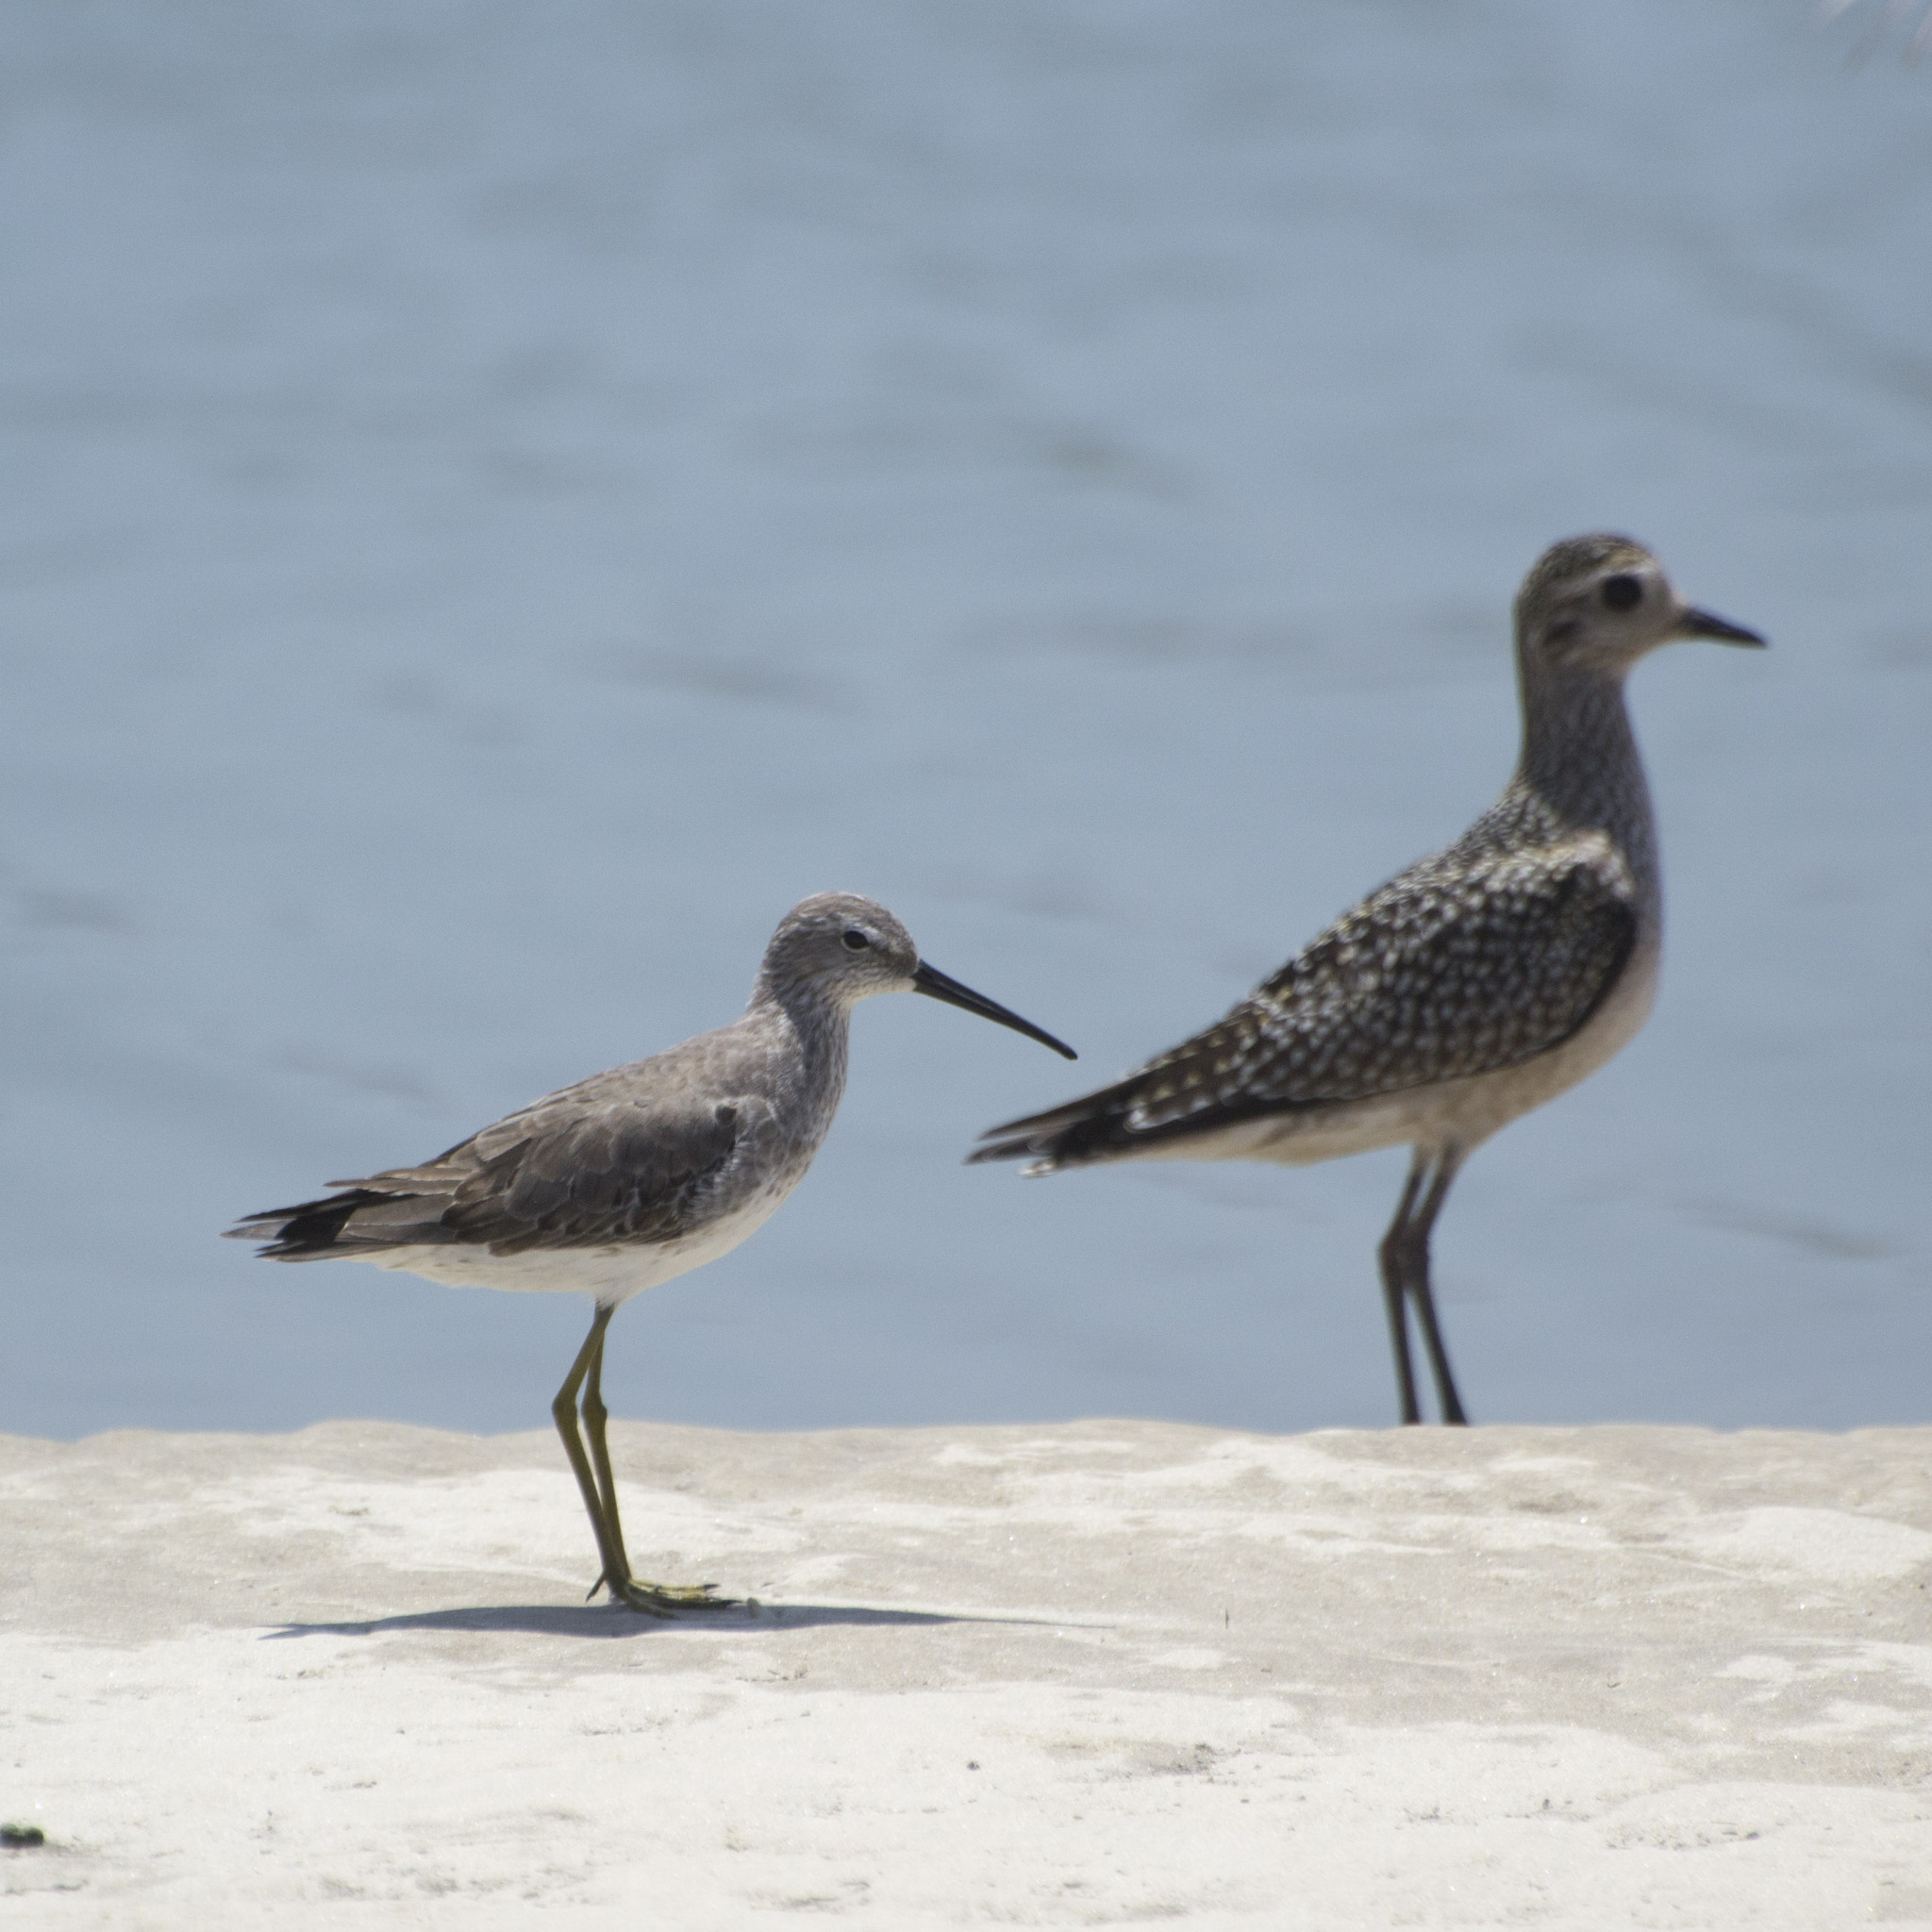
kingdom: Animalia
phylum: Chordata
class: Aves
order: Charadriiformes
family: Scolopacidae
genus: Calidris
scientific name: Calidris himantopus
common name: Stilt sandpiper
